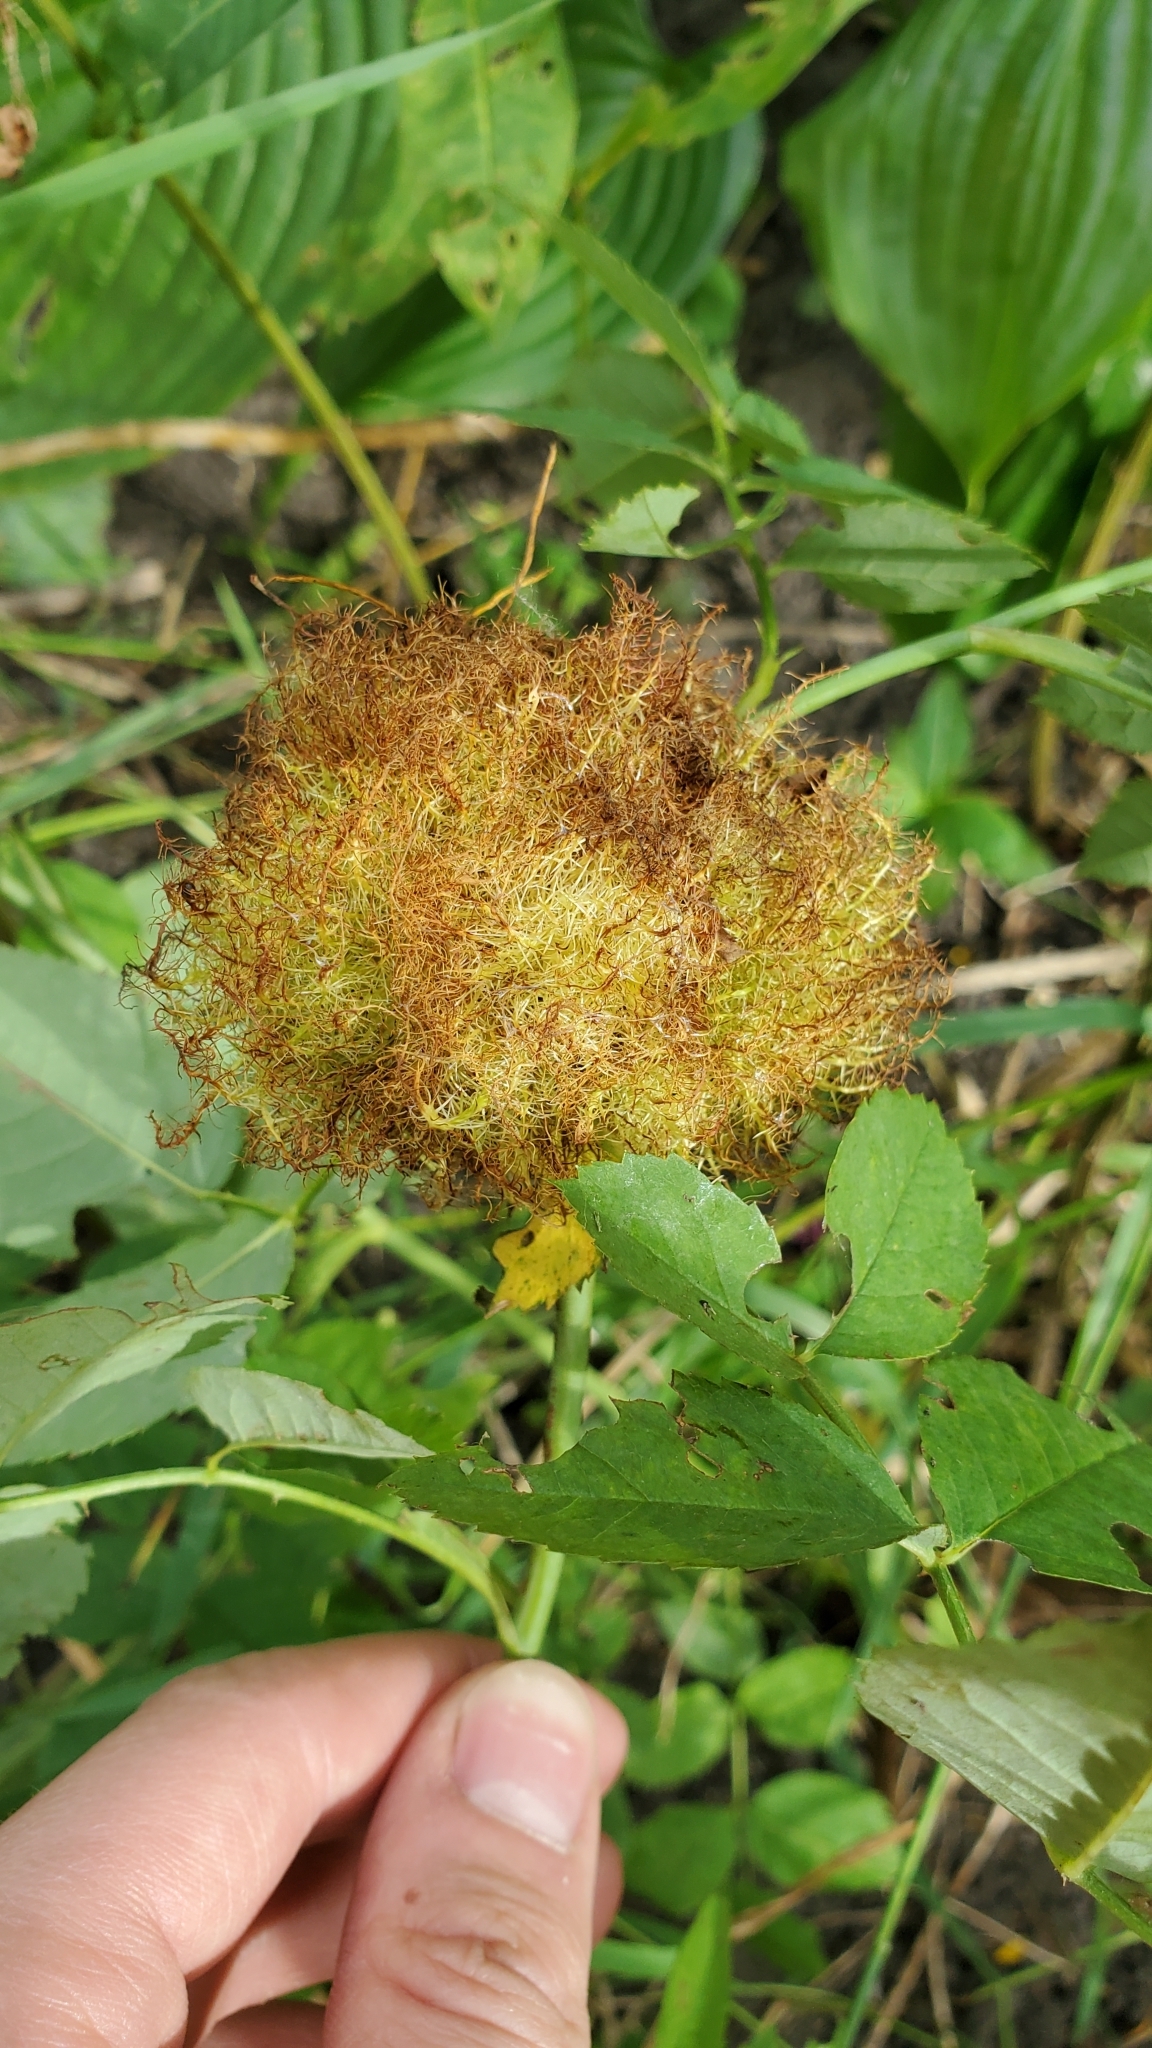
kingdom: Animalia
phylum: Arthropoda
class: Insecta
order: Hymenoptera
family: Cynipidae
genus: Diplolepis
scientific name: Diplolepis rosae
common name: Bedeguar gall
